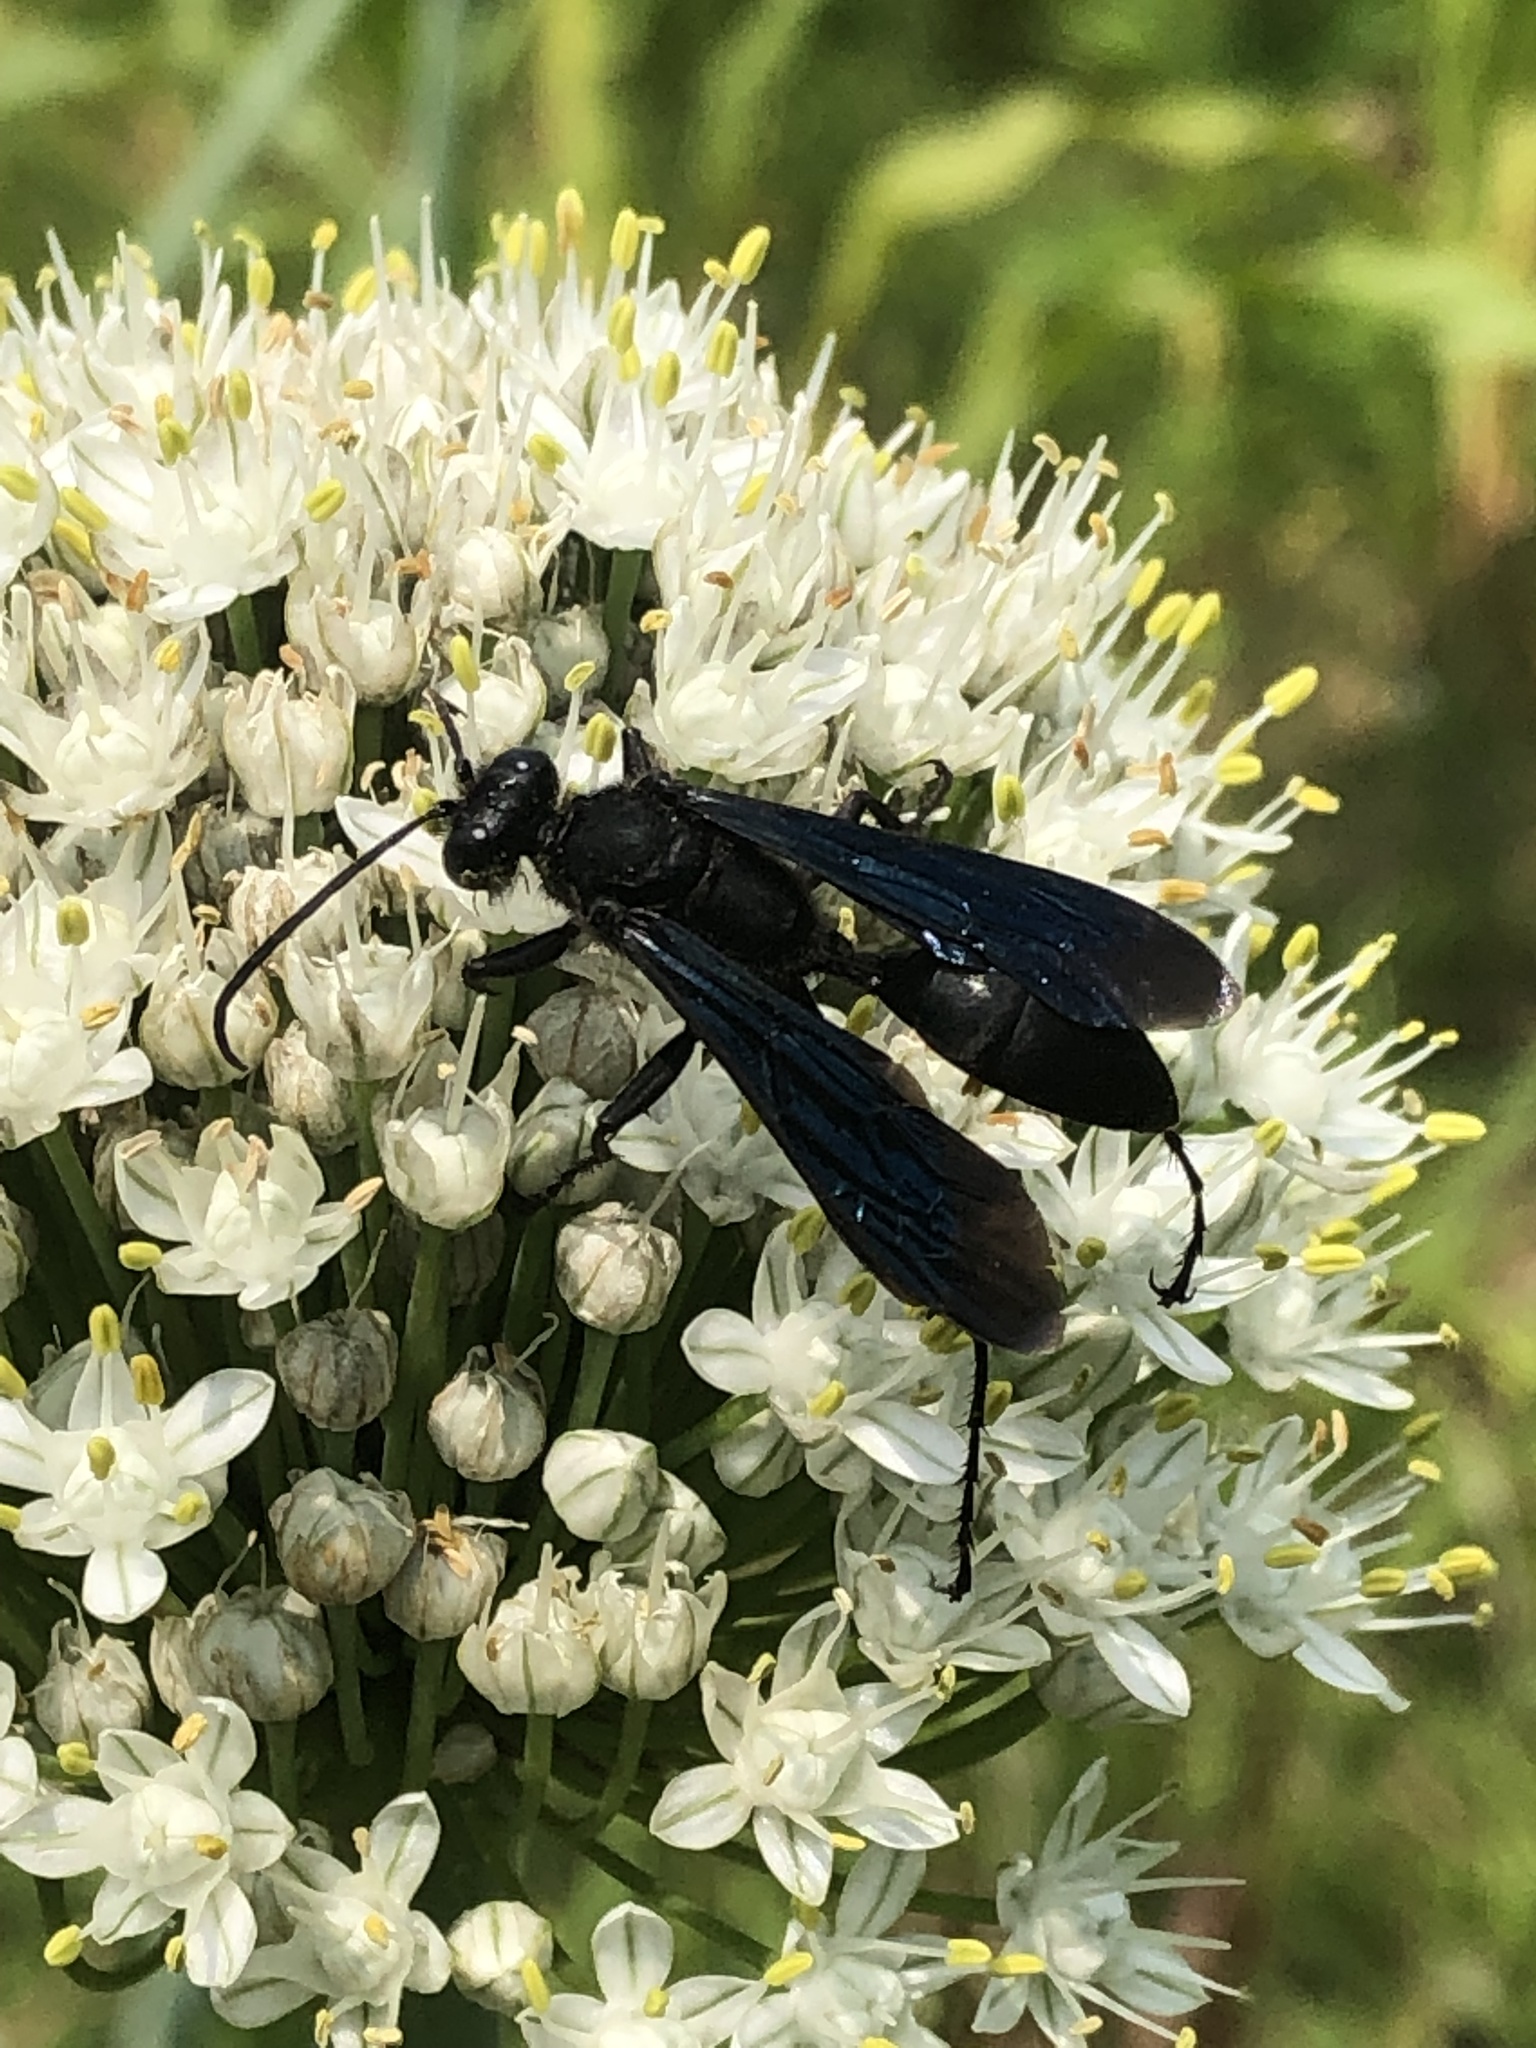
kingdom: Animalia
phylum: Arthropoda
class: Insecta
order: Hymenoptera
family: Sphecidae
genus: Sphex
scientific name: Sphex pensylvanicus
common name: Great black digger wasp
